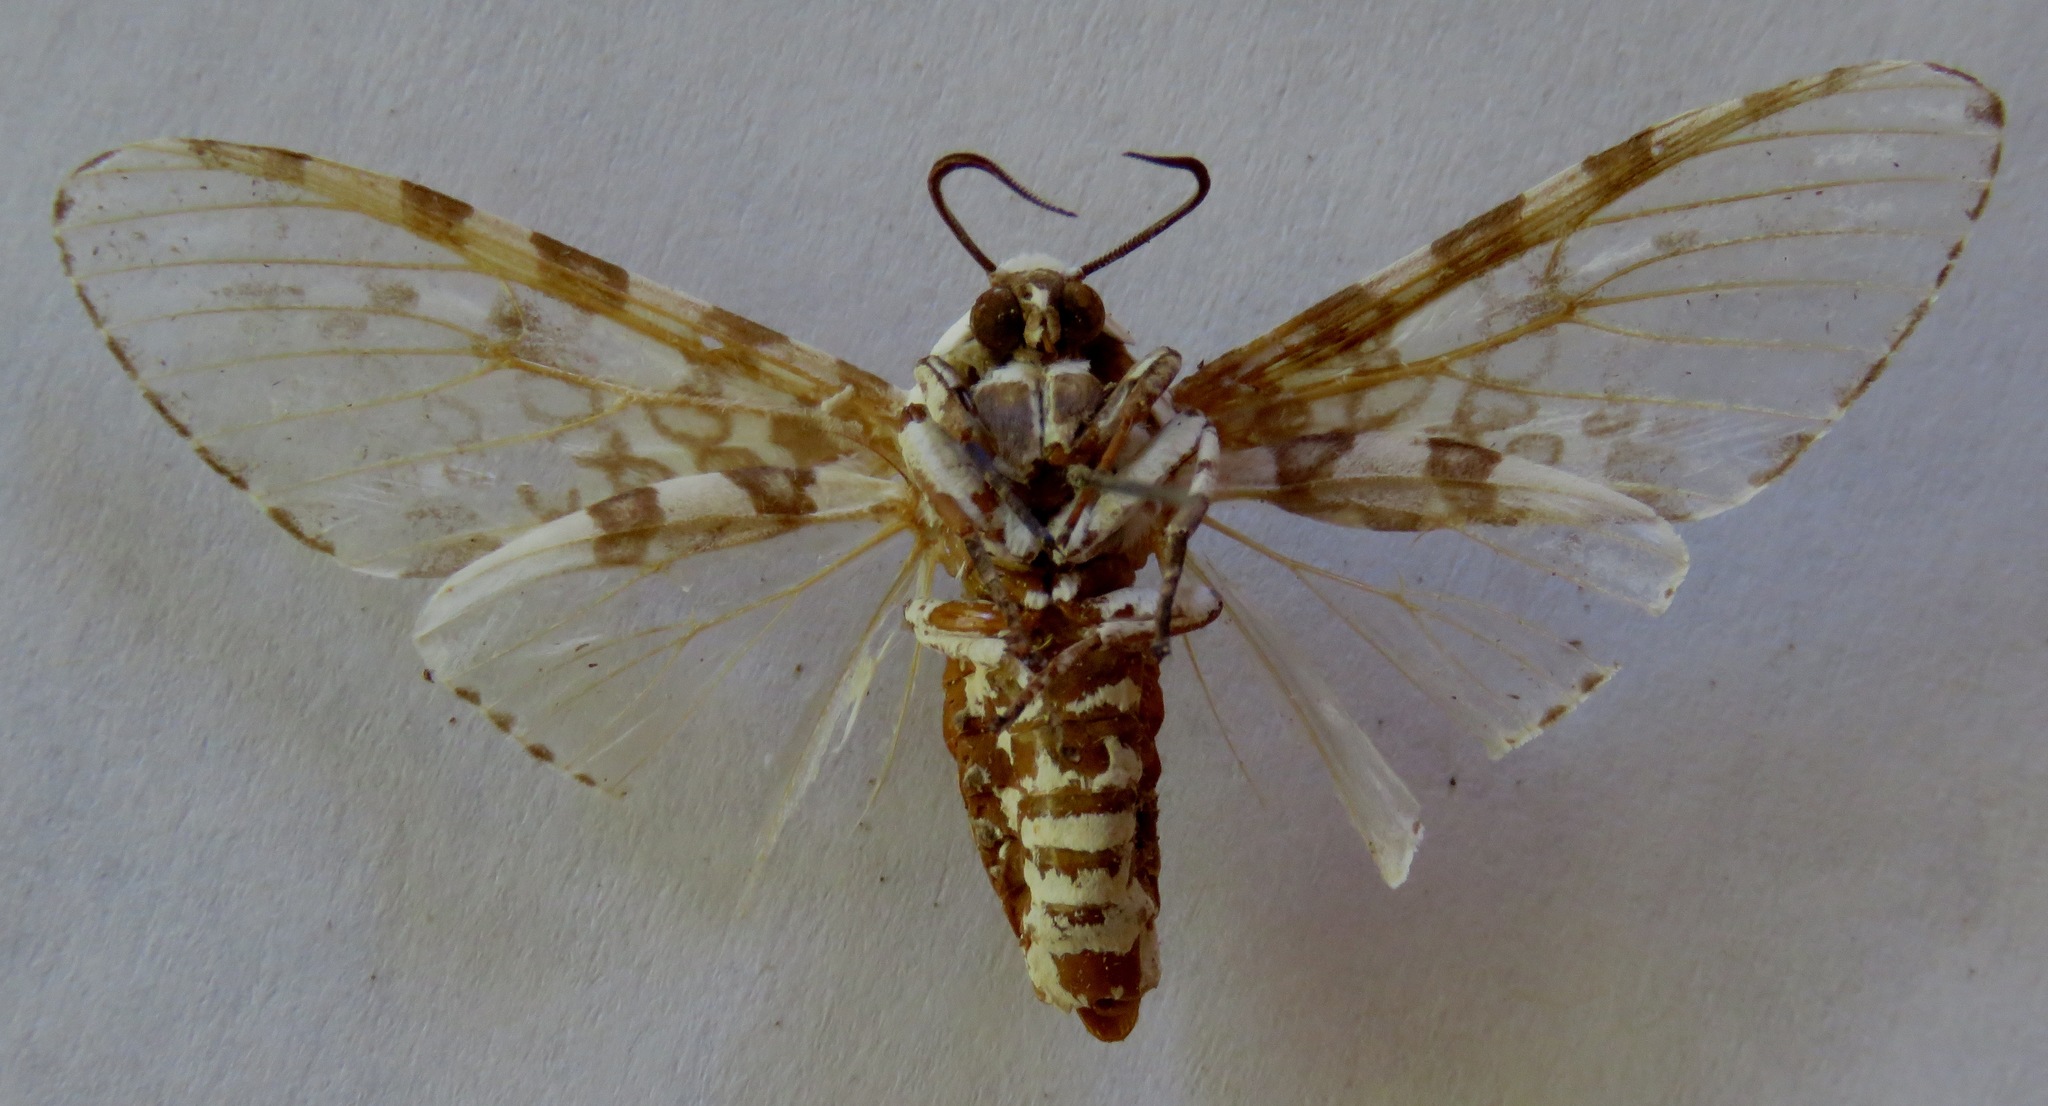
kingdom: Animalia
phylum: Arthropoda
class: Insecta
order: Lepidoptera
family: Erebidae
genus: Hypercompe
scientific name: Hypercompe caudata
